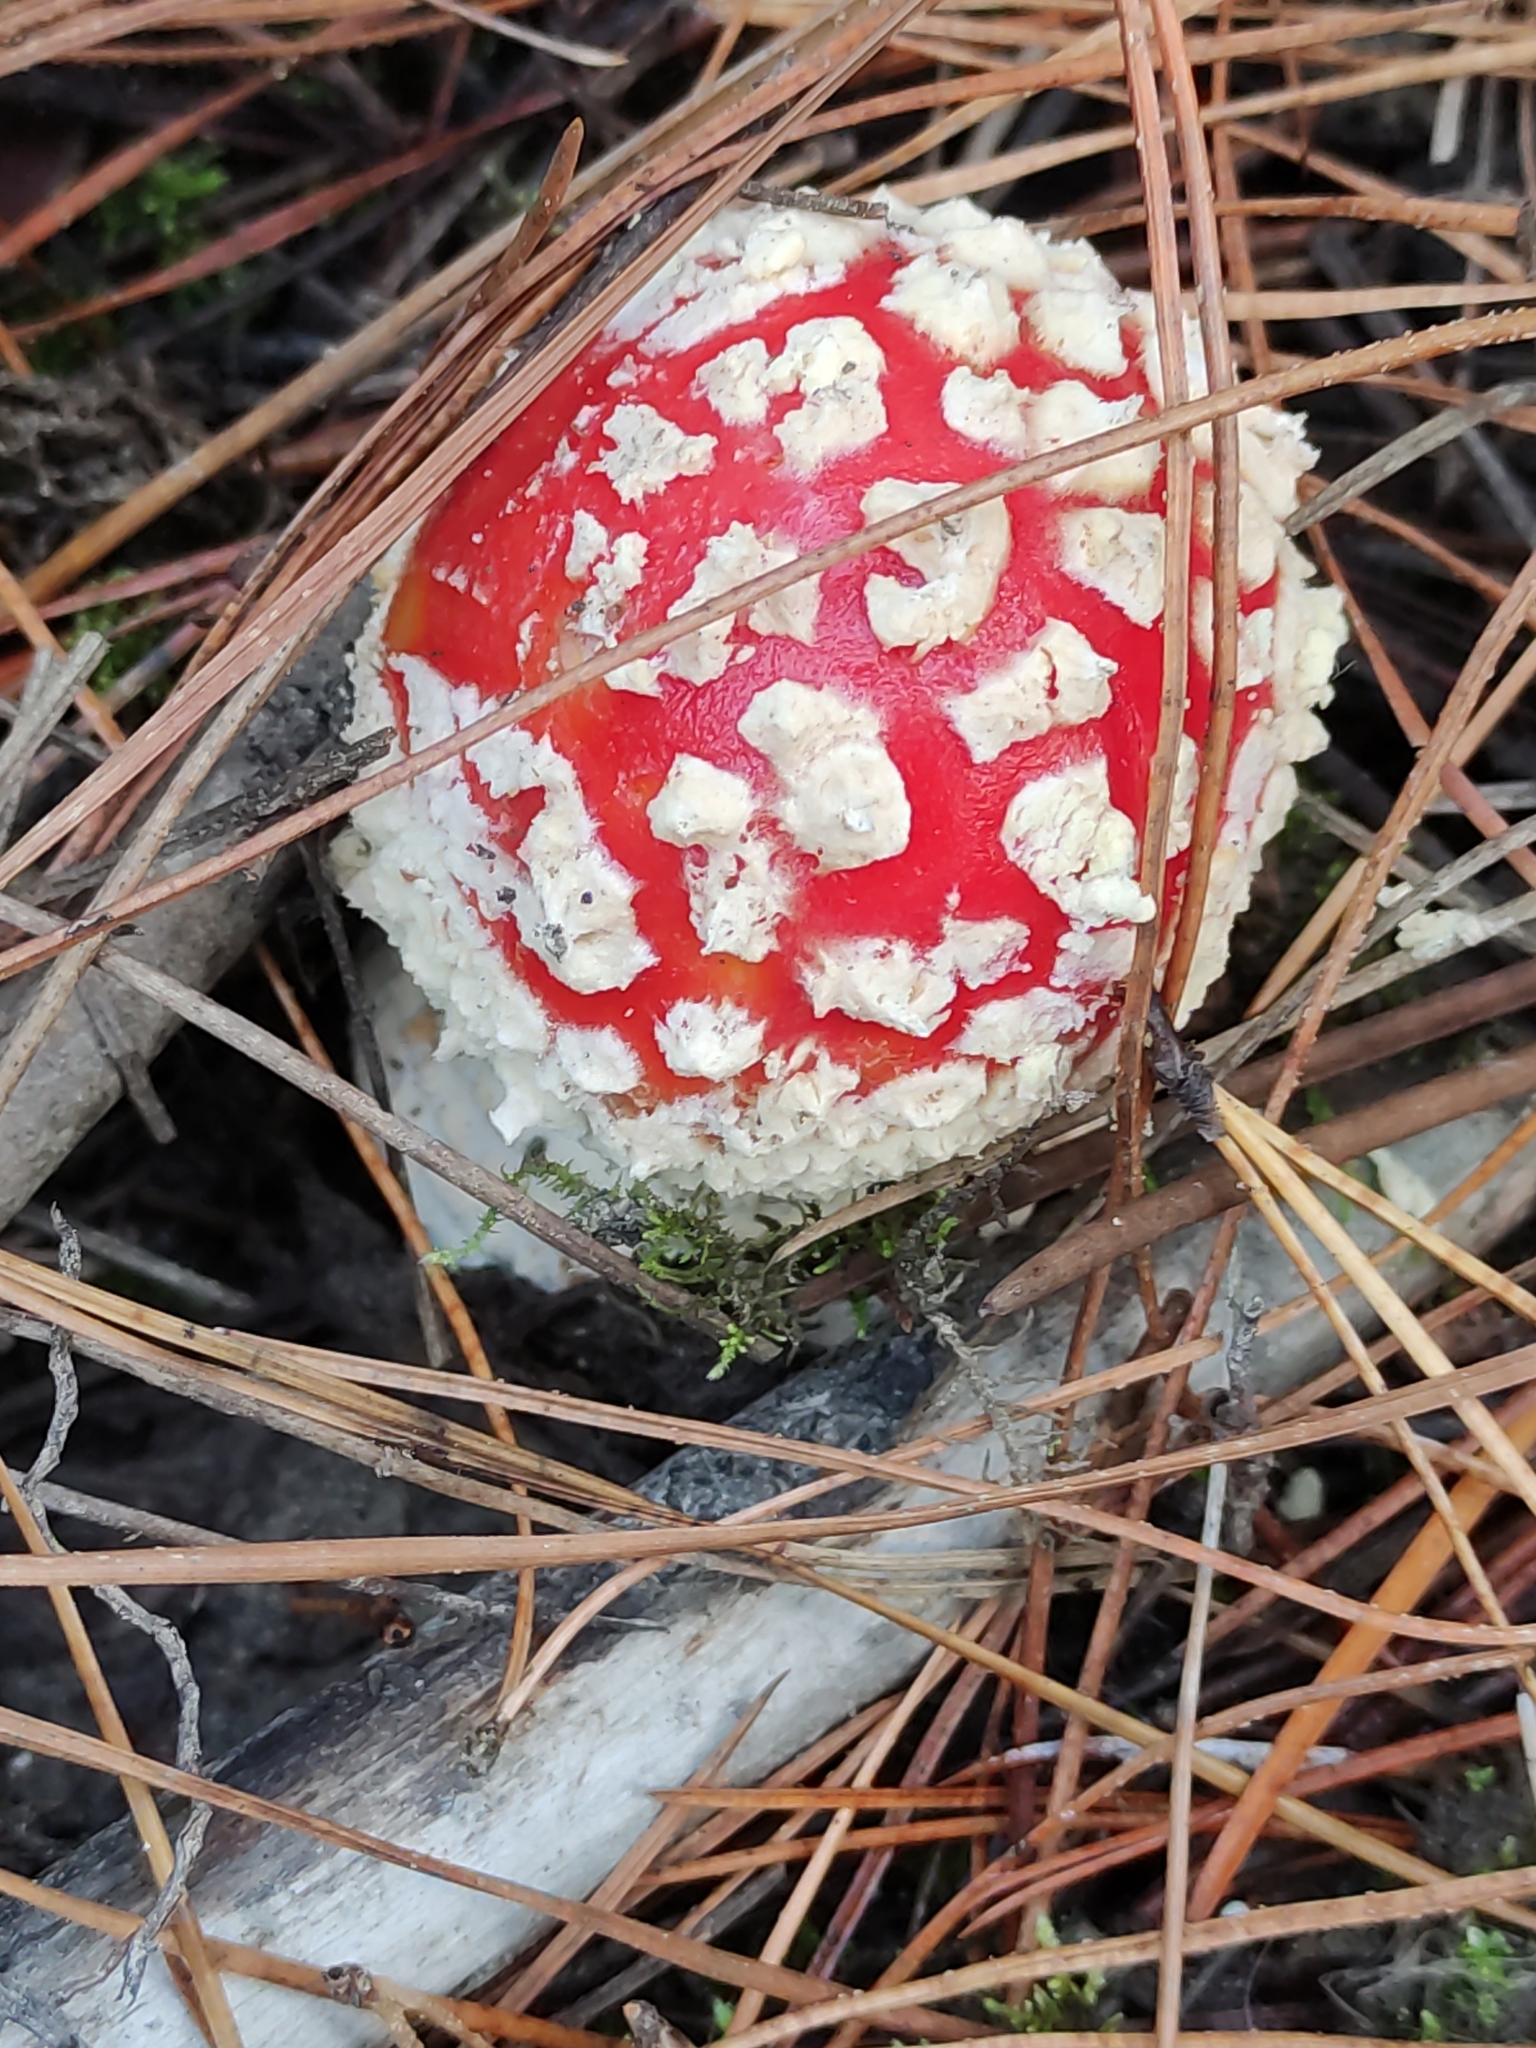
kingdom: Fungi
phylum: Basidiomycota
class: Agaricomycetes
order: Agaricales
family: Amanitaceae
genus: Amanita
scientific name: Amanita muscaria
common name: Fly agaric
